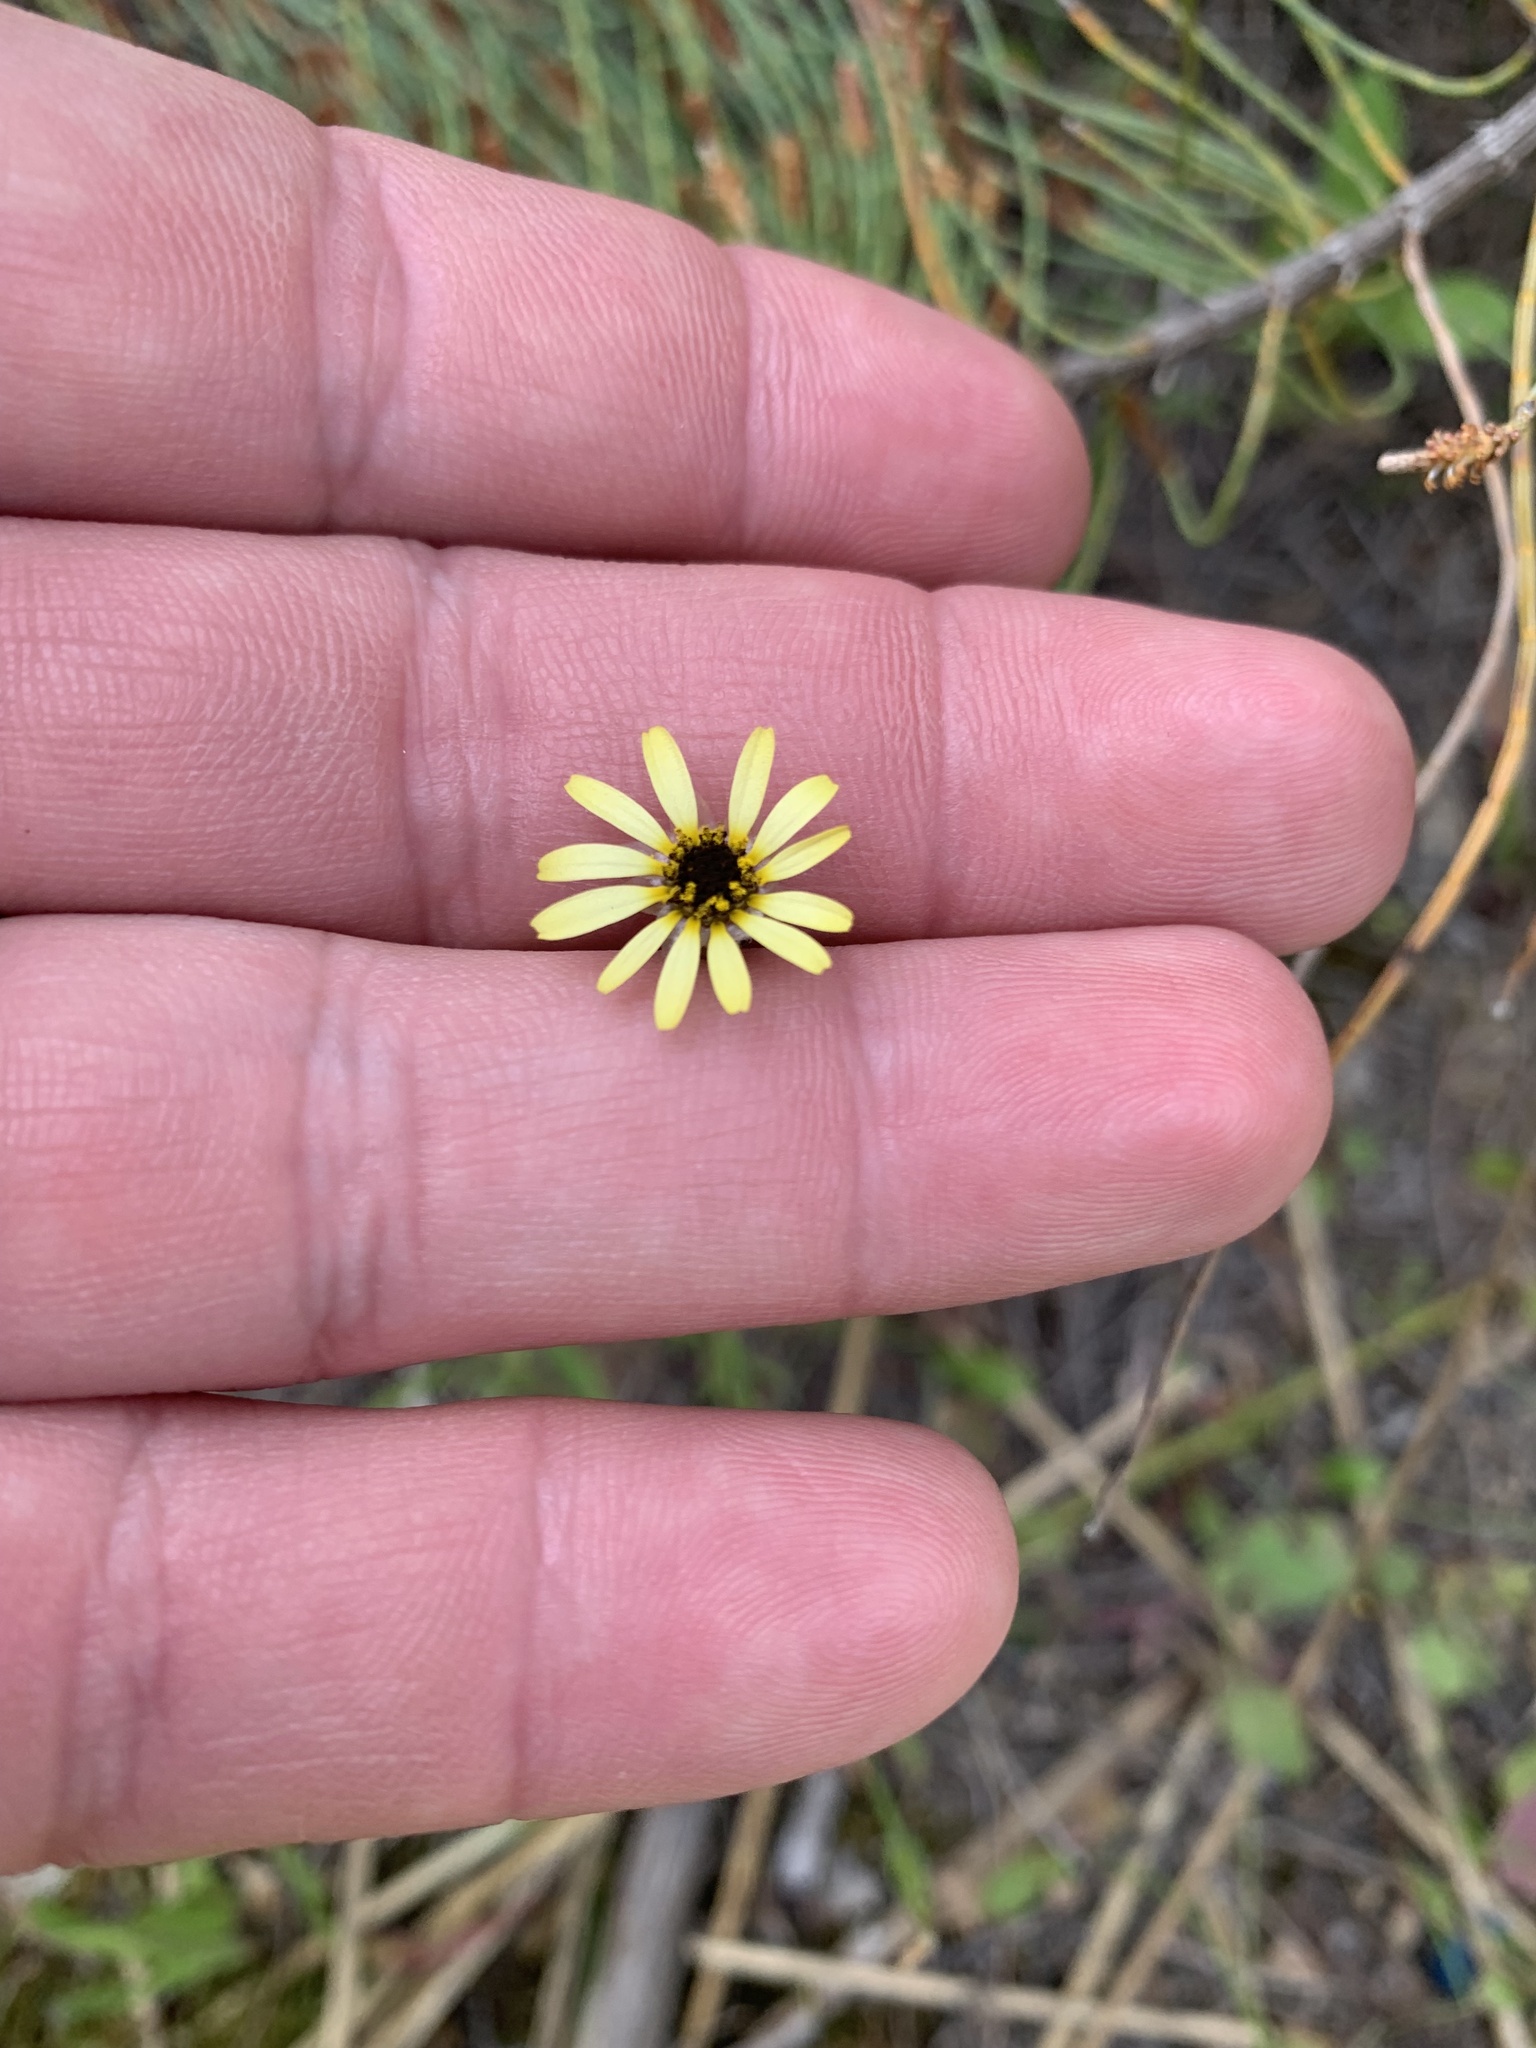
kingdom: Plantae
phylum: Tracheophyta
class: Magnoliopsida
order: Asterales
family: Asteraceae
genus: Ursinia
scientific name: Ursinia anthemoides
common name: Ursinia
